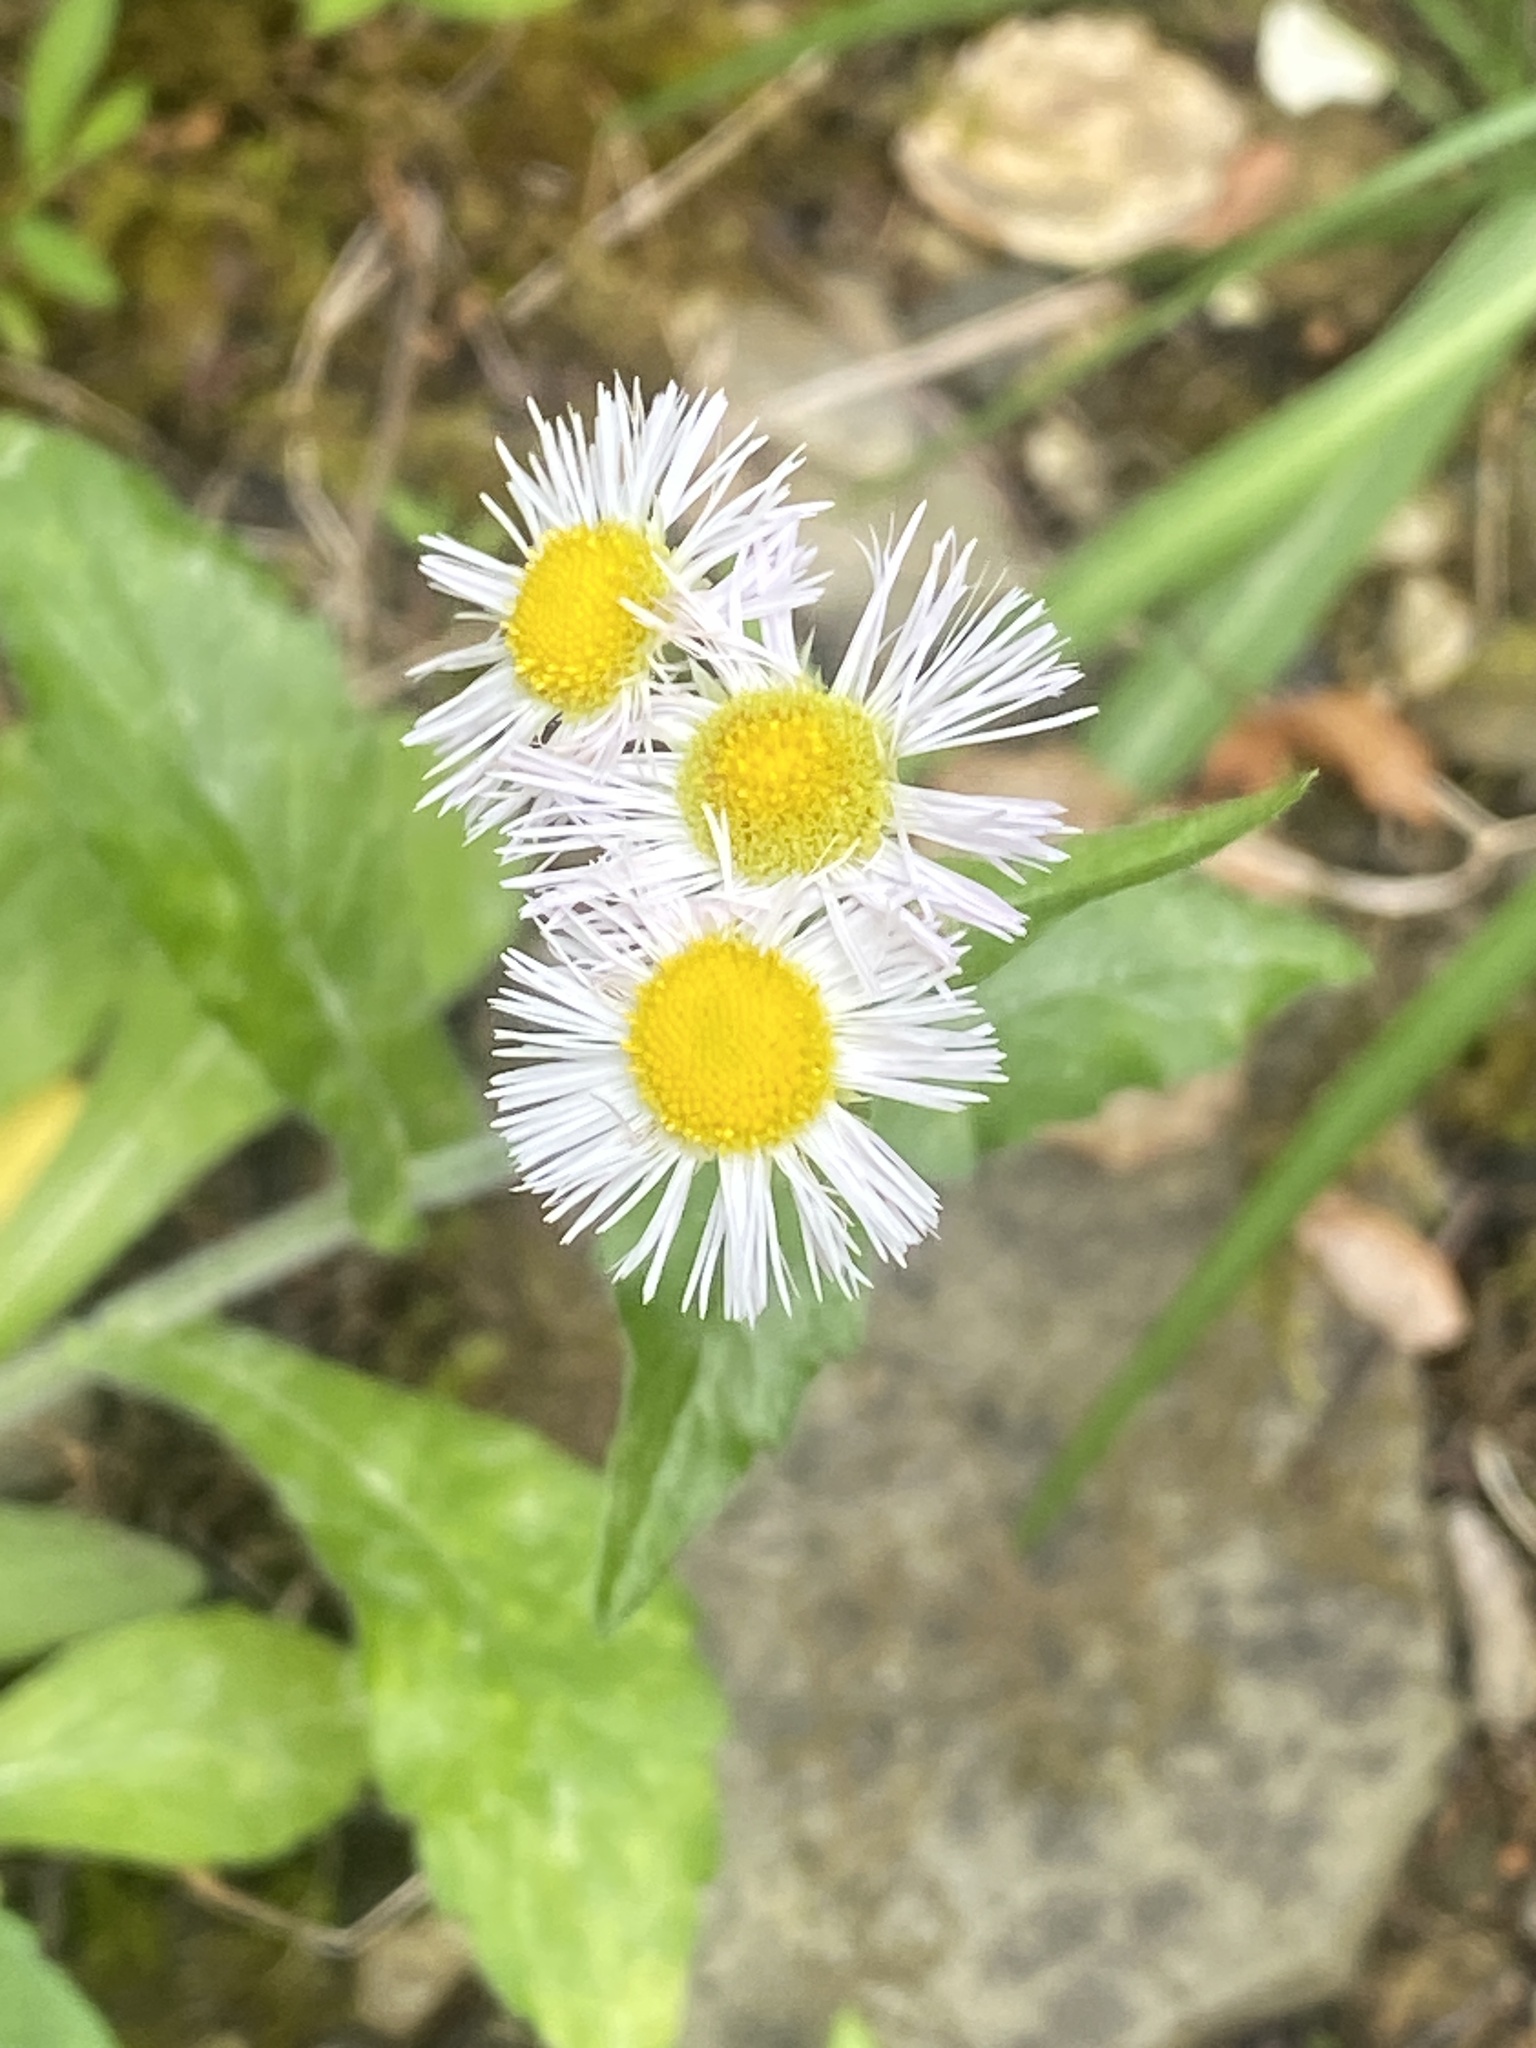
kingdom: Plantae
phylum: Tracheophyta
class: Magnoliopsida
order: Asterales
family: Asteraceae
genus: Erigeron
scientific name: Erigeron philadelphicus
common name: Robin's-plantain
